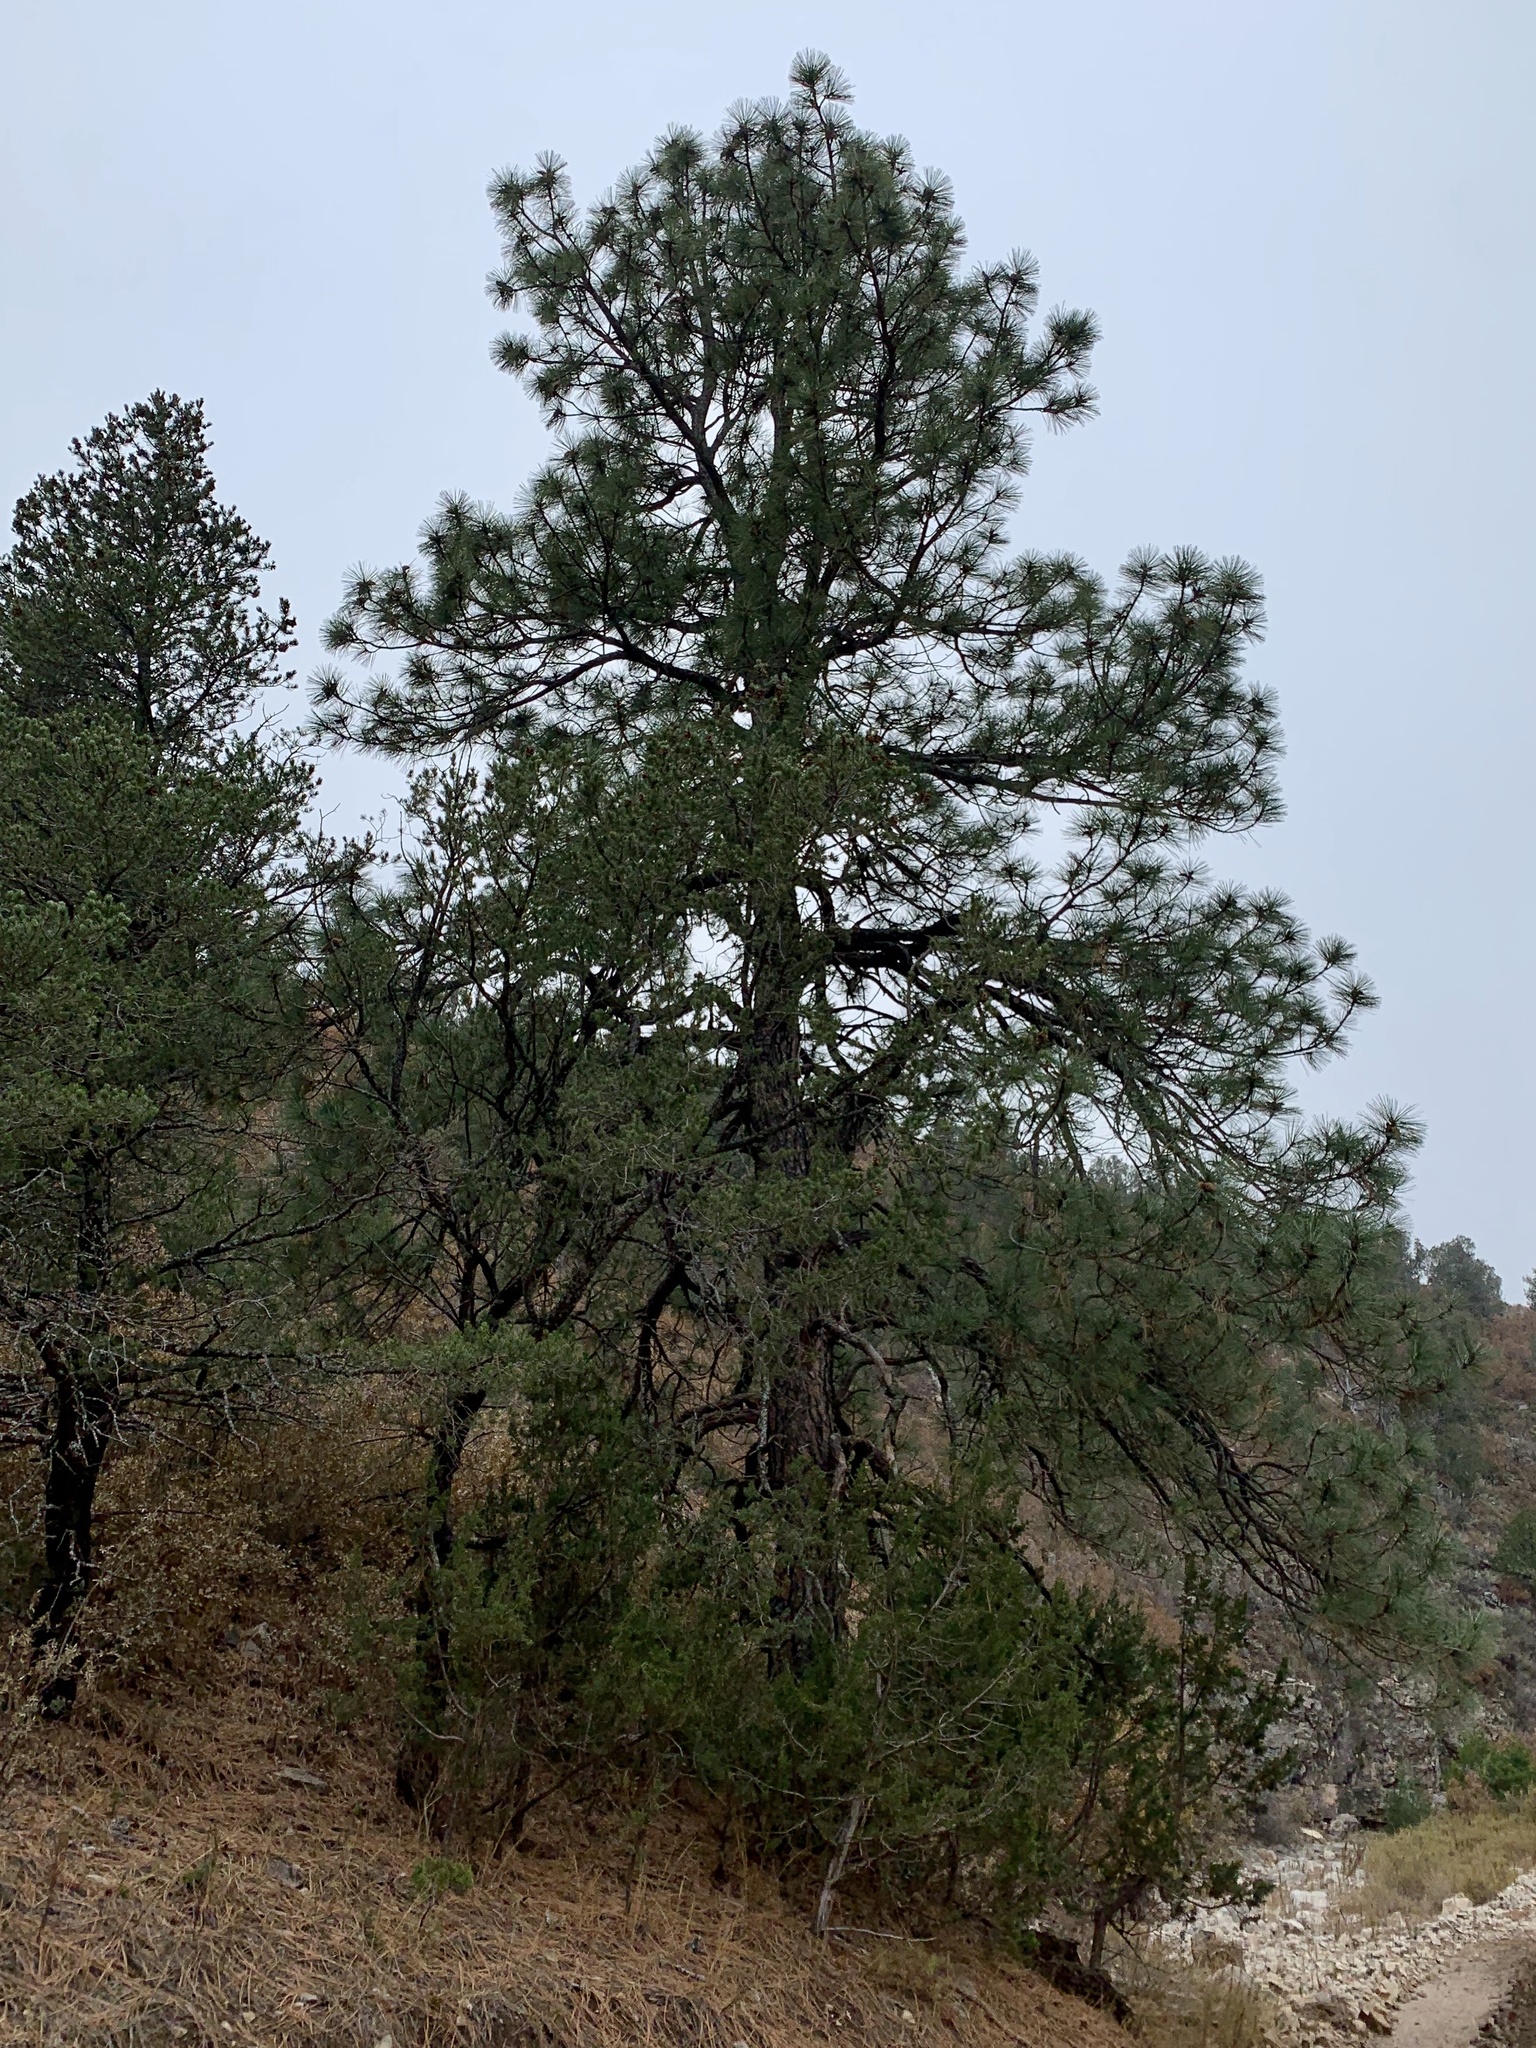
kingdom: Plantae
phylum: Tracheophyta
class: Pinopsida
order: Pinales
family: Pinaceae
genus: Pinus
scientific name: Pinus ponderosa
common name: Western yellow-pine
